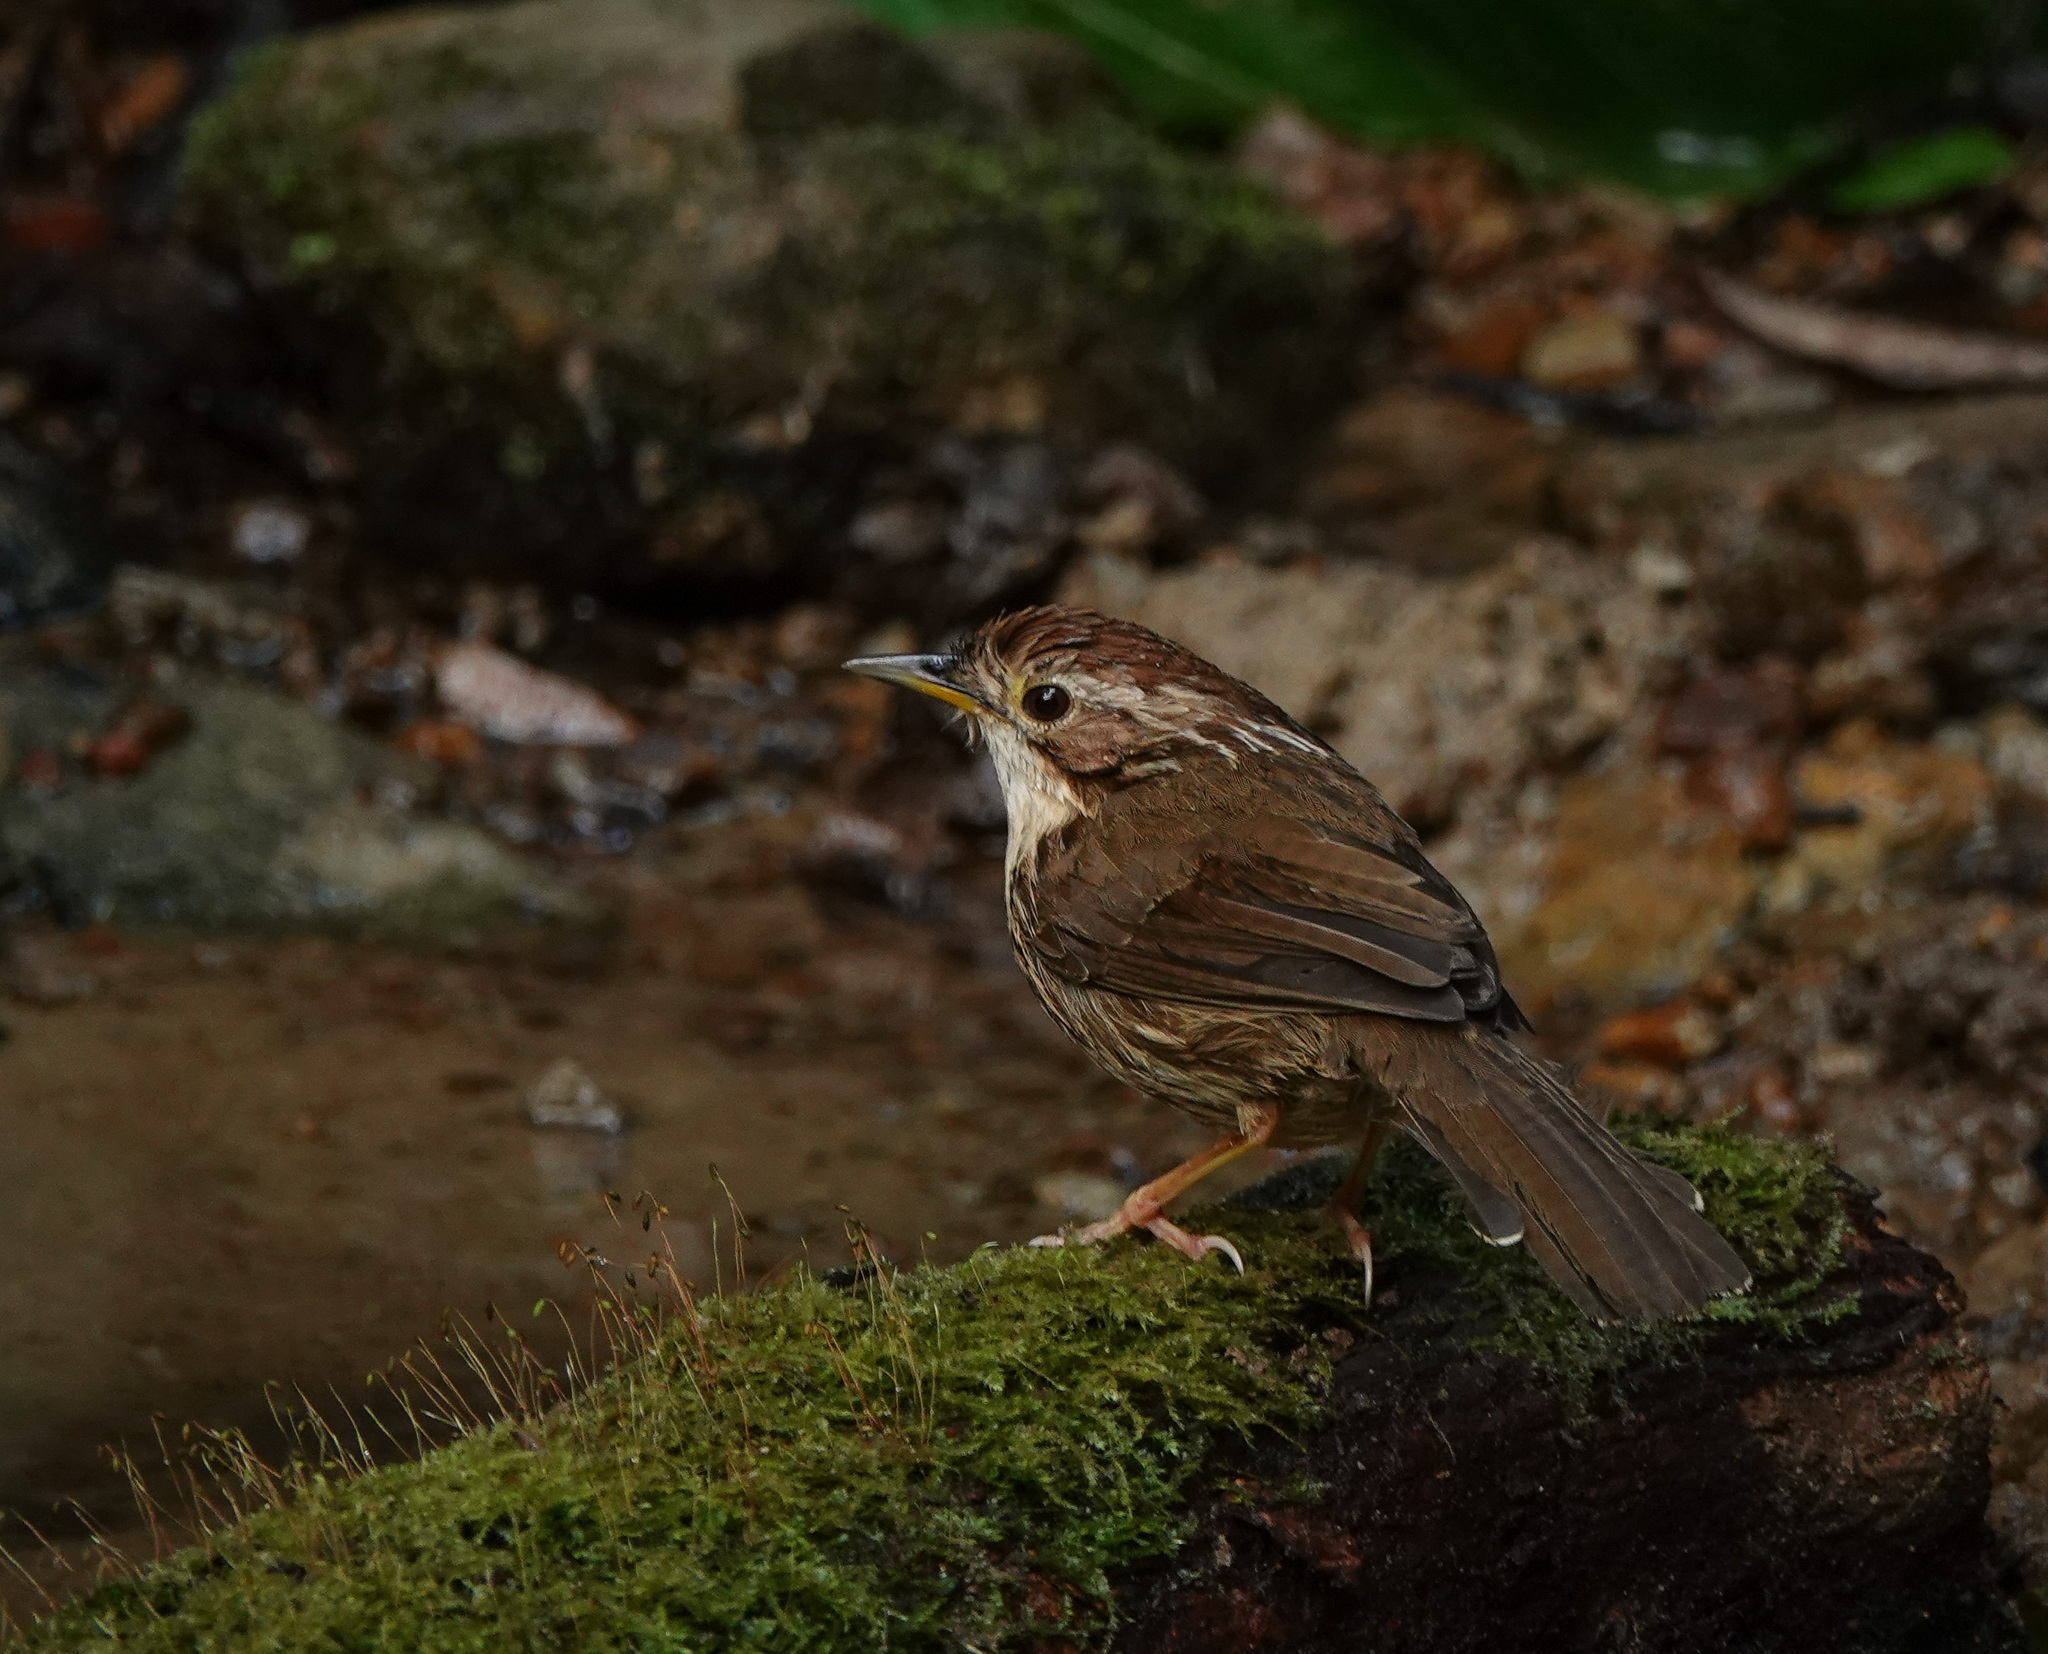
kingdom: Animalia
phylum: Chordata
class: Aves
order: Passeriformes
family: Pellorneidae
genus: Pellorneum
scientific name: Pellorneum ruficeps
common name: Puff-throated babbler
